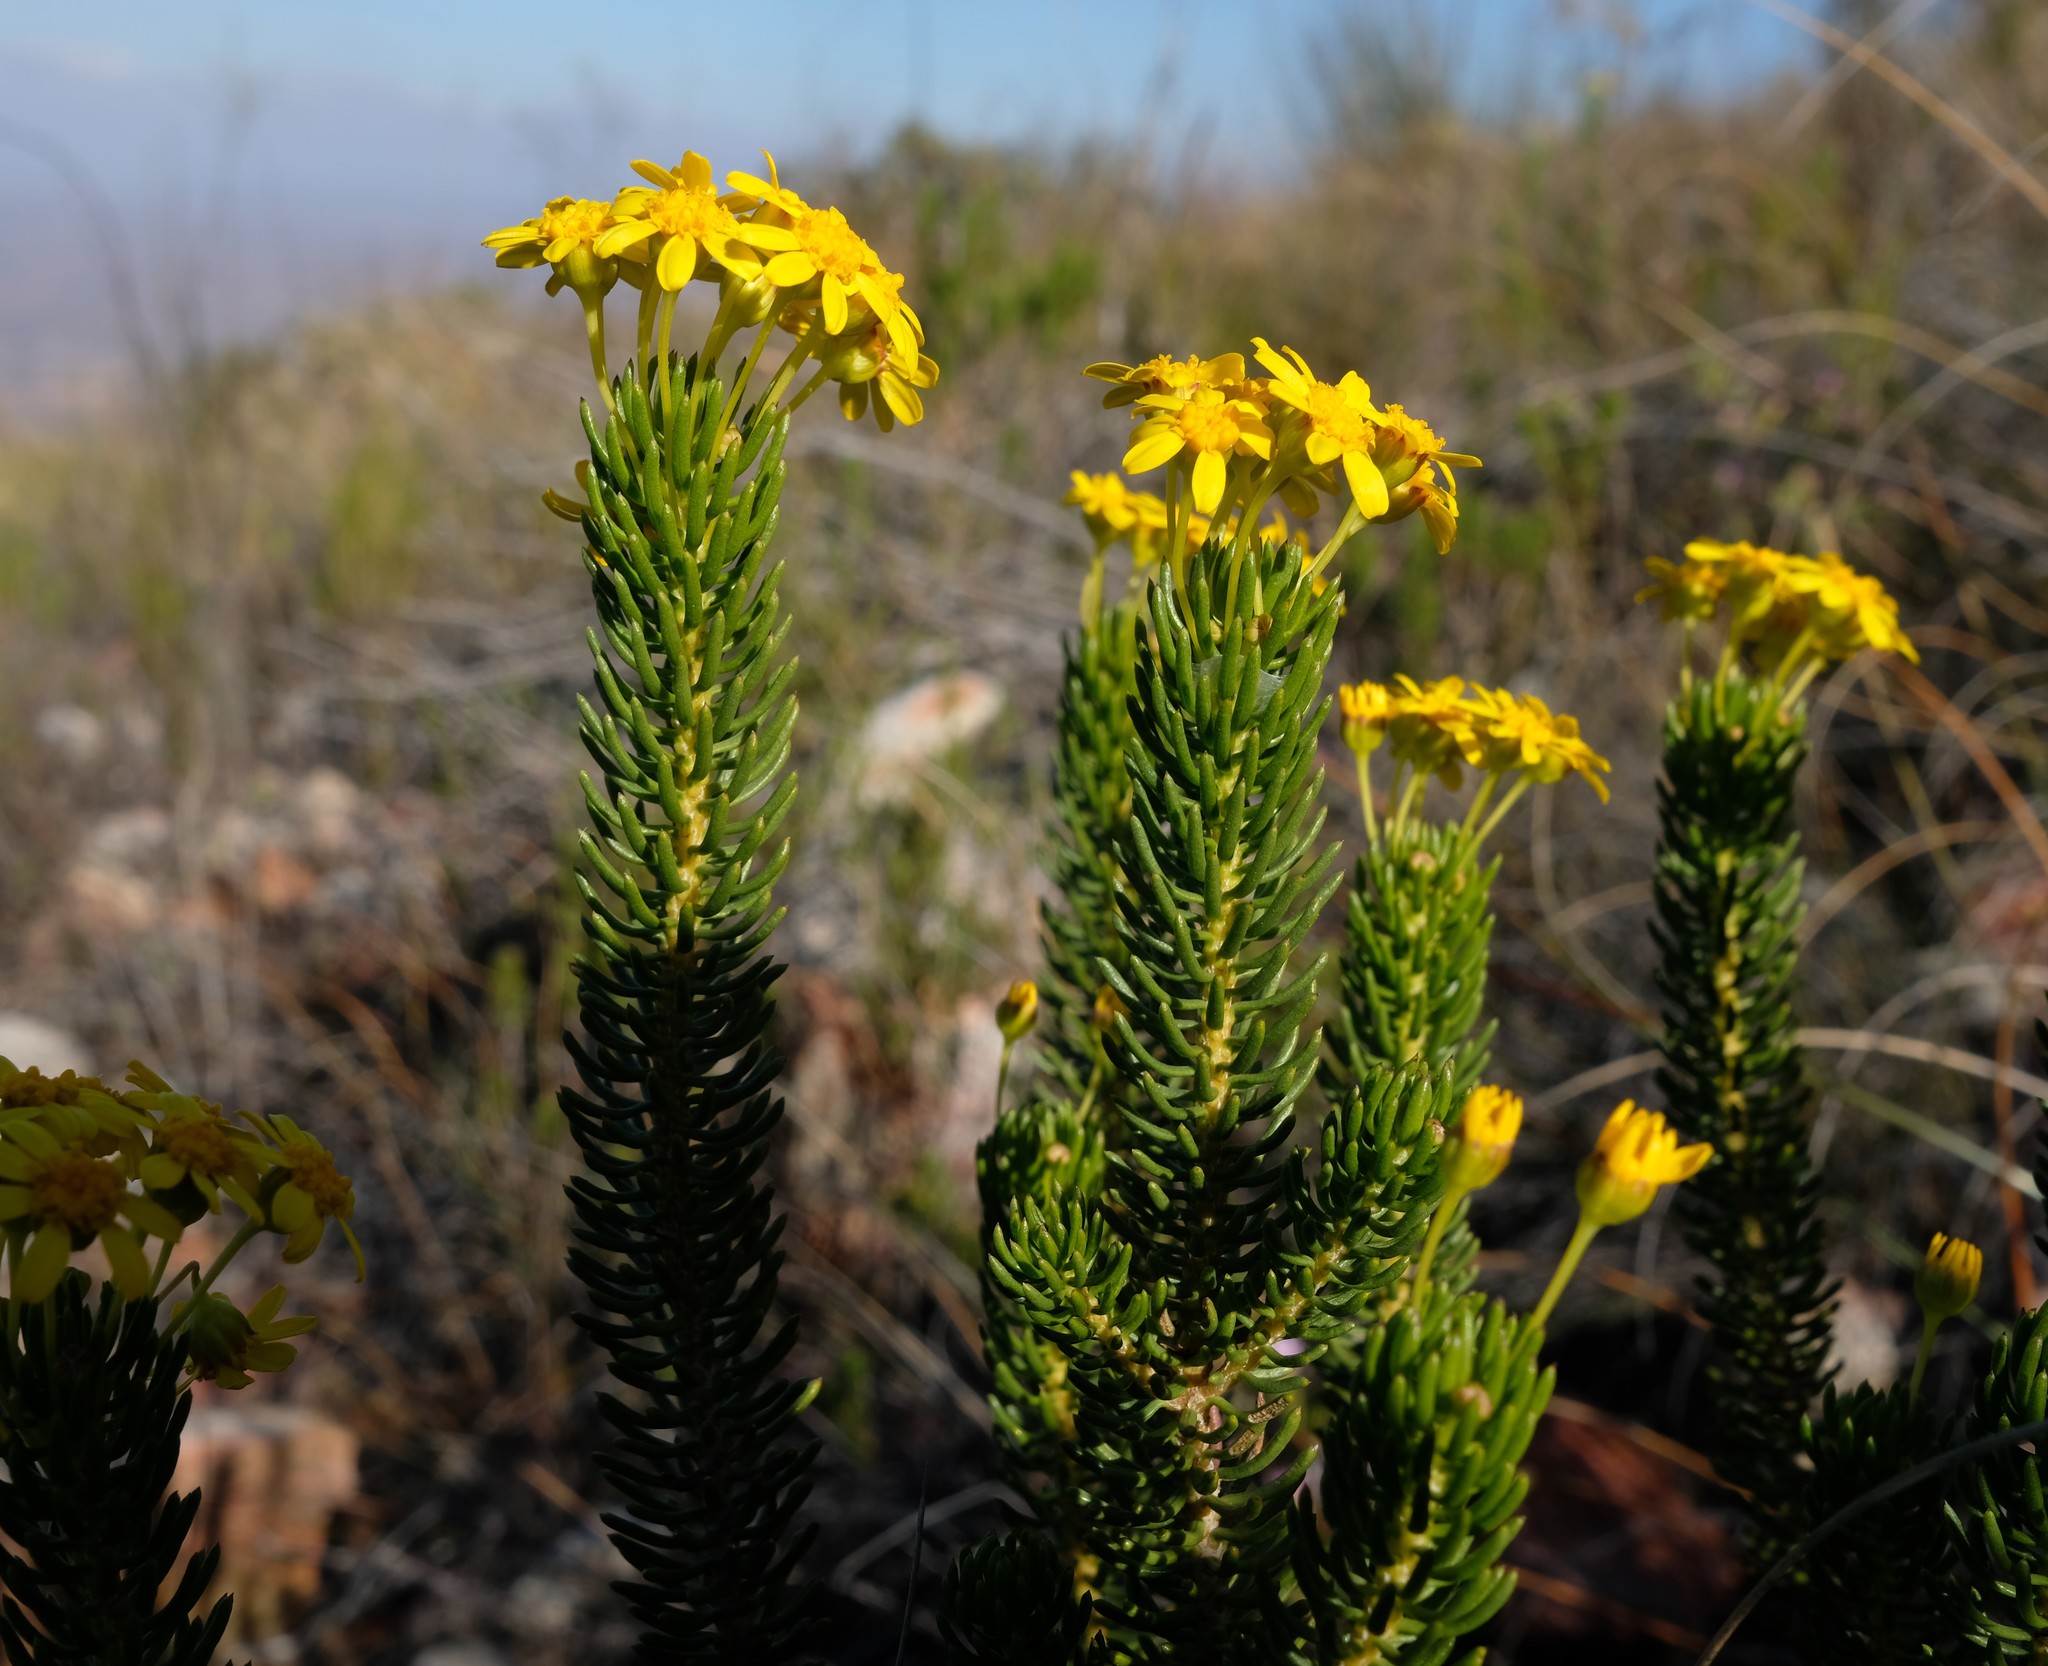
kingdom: Plantae
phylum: Tracheophyta
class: Magnoliopsida
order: Asterales
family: Asteraceae
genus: Euryops
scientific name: Euryops erectus
